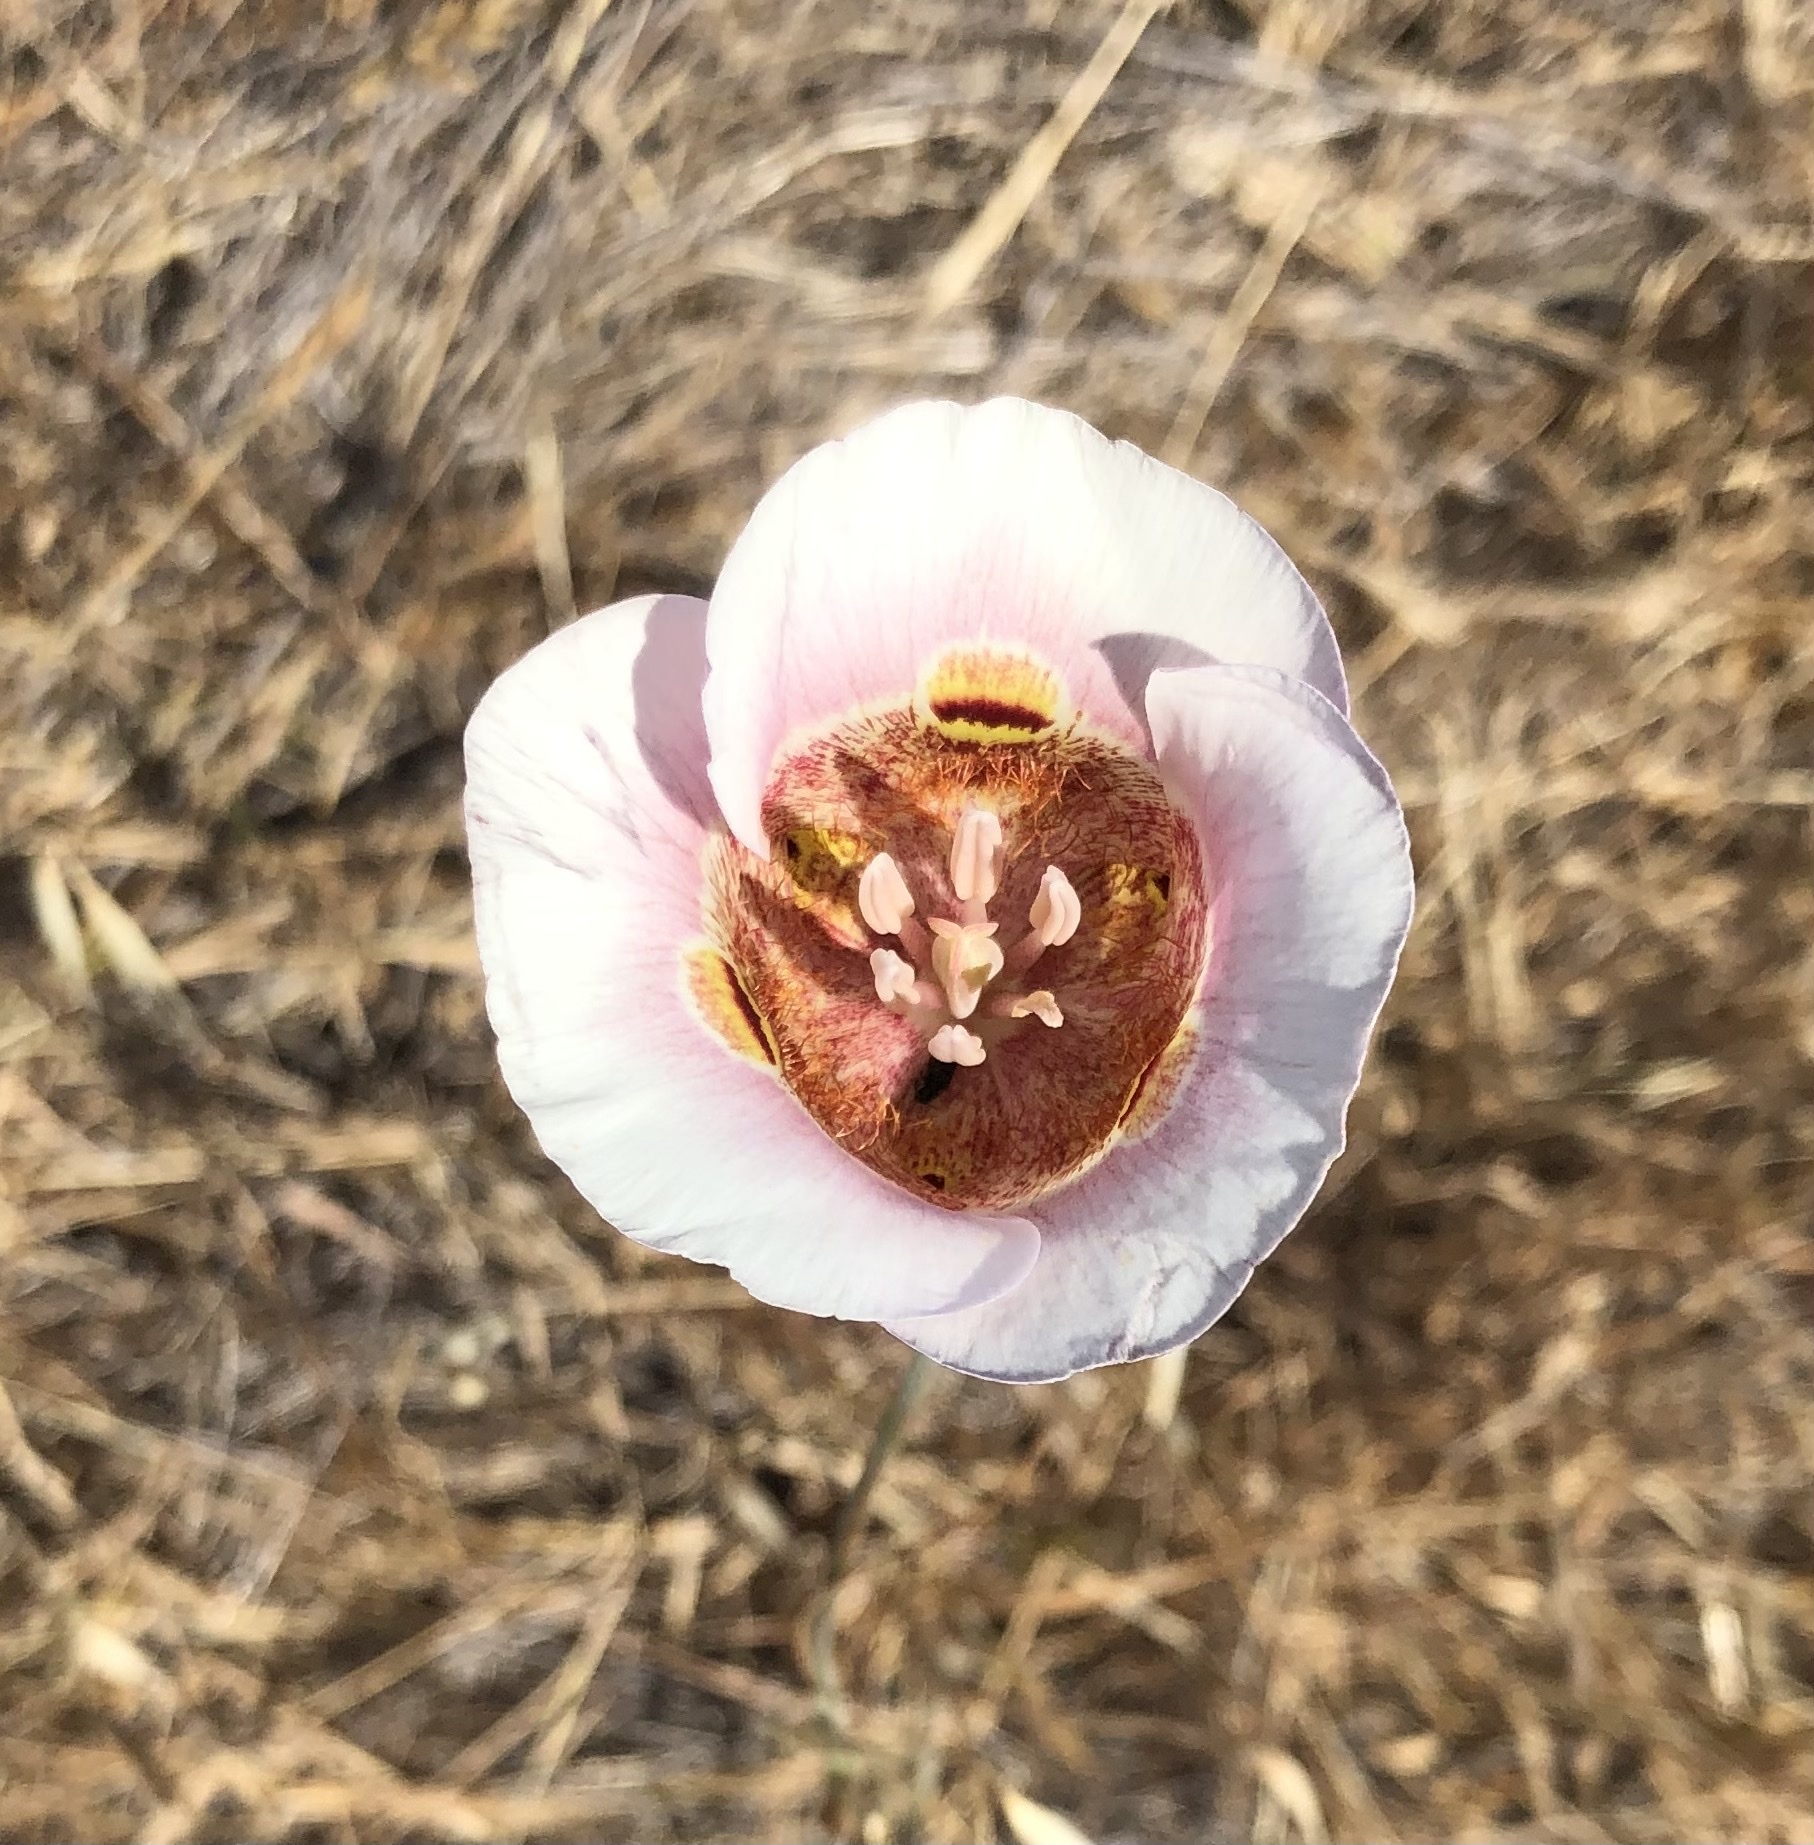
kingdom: Plantae
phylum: Tracheophyta
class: Liliopsida
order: Liliales
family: Liliaceae
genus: Calochortus
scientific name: Calochortus argillosus
